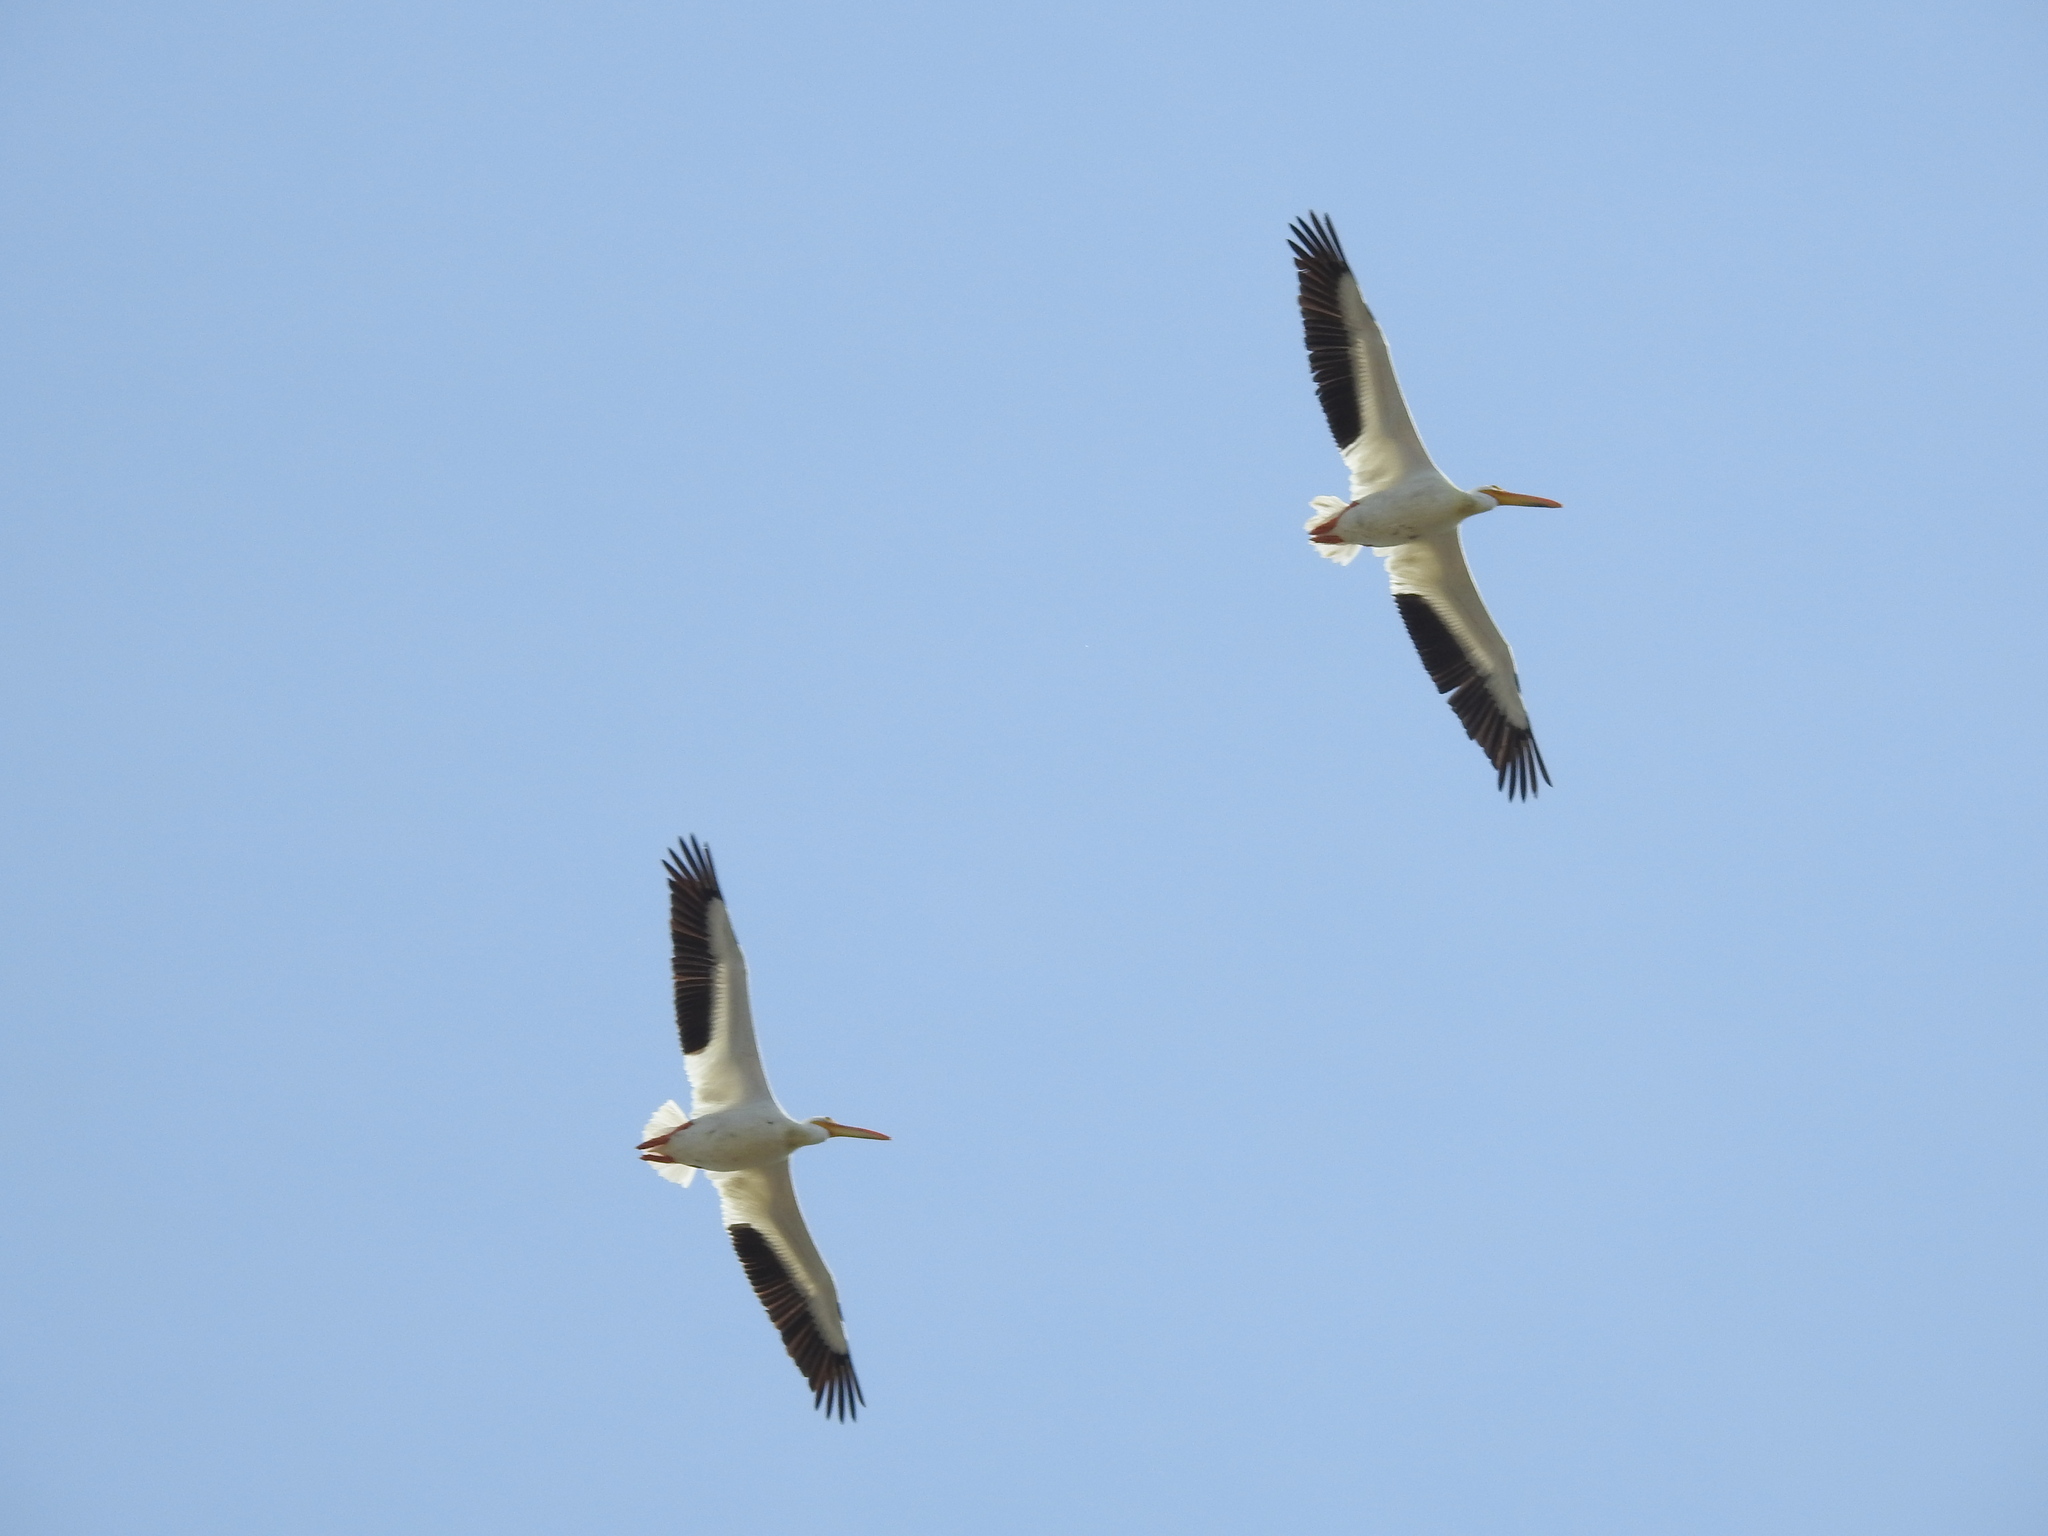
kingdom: Animalia
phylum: Chordata
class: Aves
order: Pelecaniformes
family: Pelecanidae
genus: Pelecanus
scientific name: Pelecanus erythrorhynchos
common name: American white pelican
